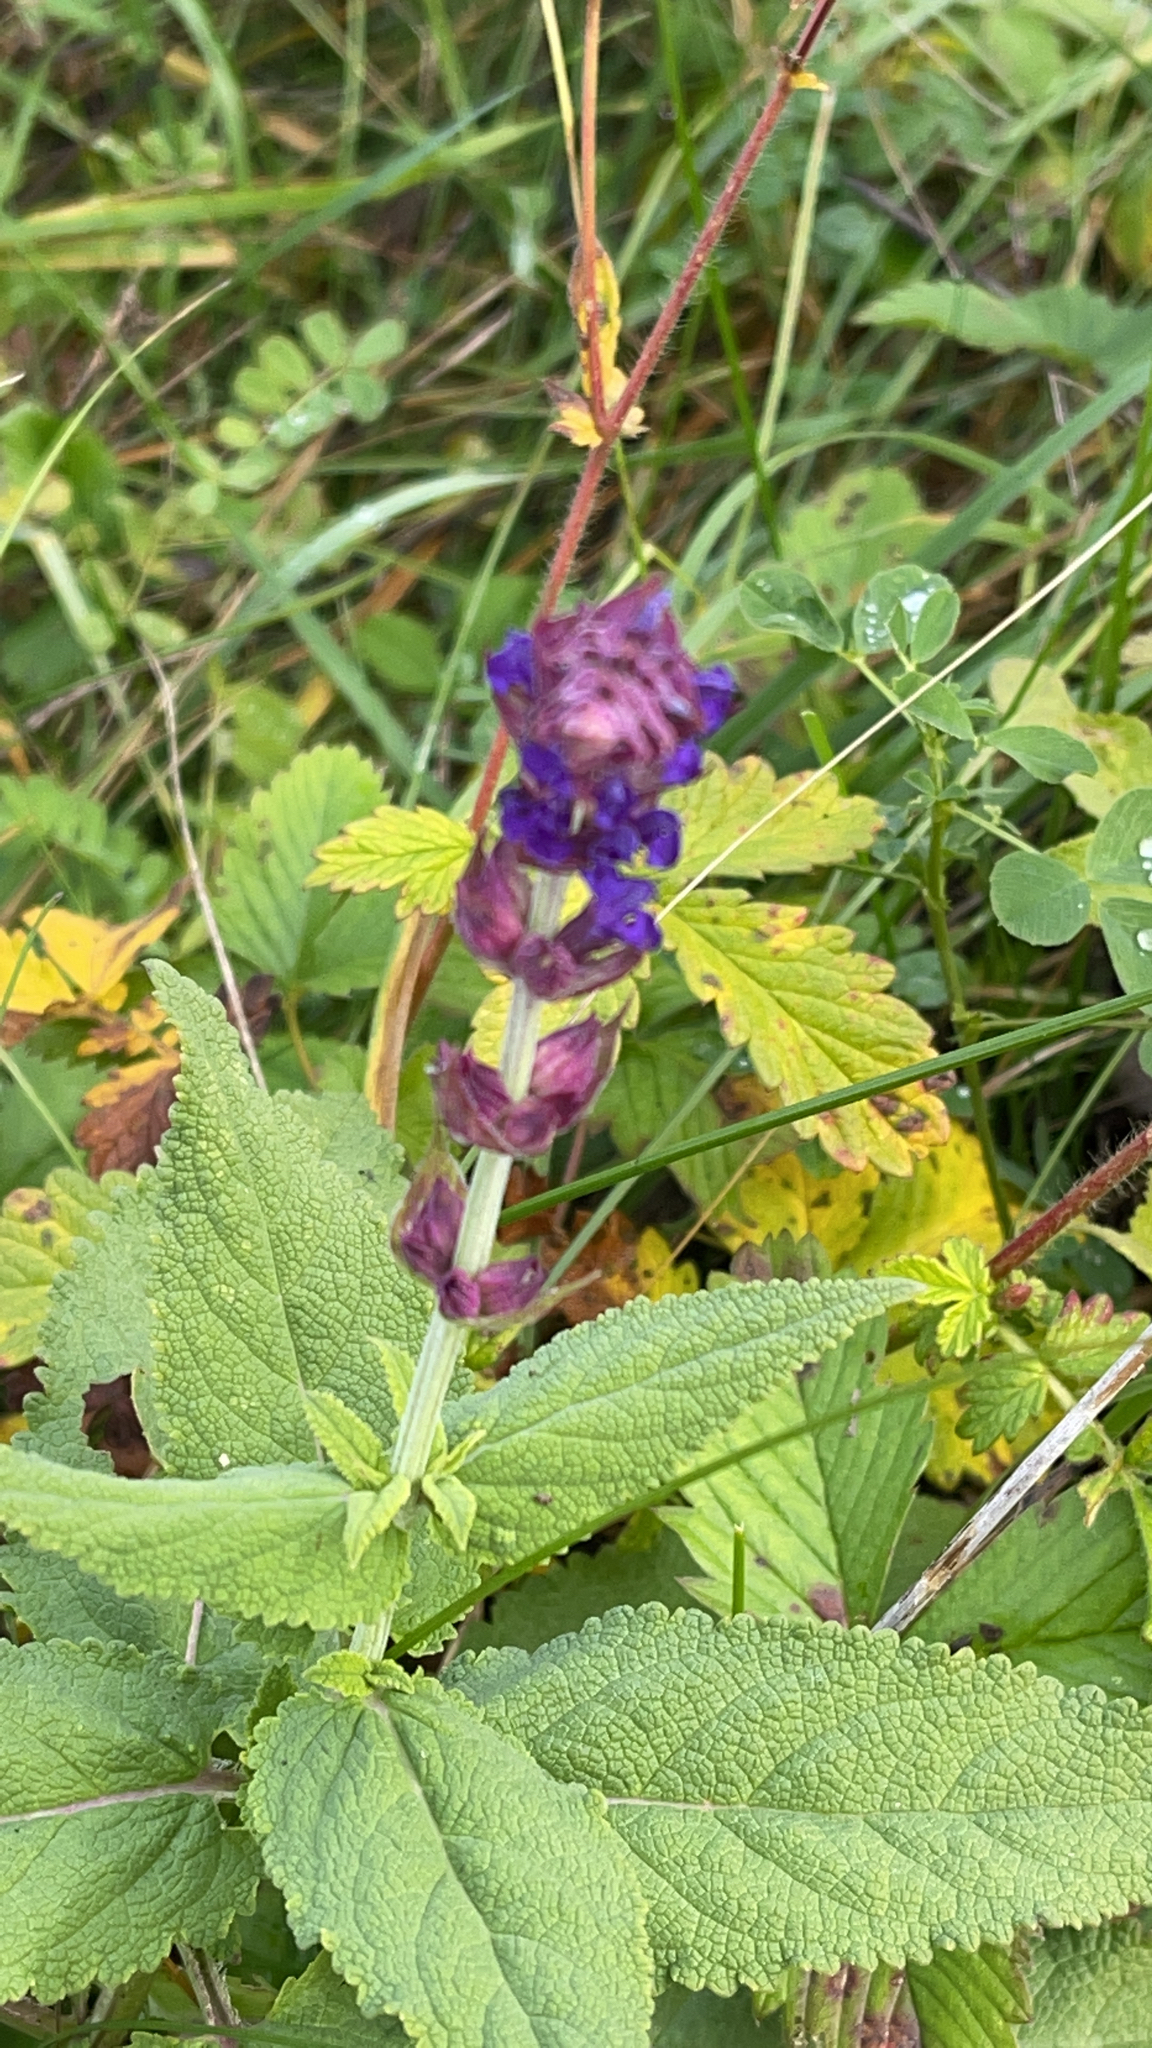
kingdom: Plantae
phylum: Tracheophyta
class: Magnoliopsida
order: Lamiales
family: Lamiaceae
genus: Salvia
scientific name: Salvia nemorosa
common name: Balkan clary
